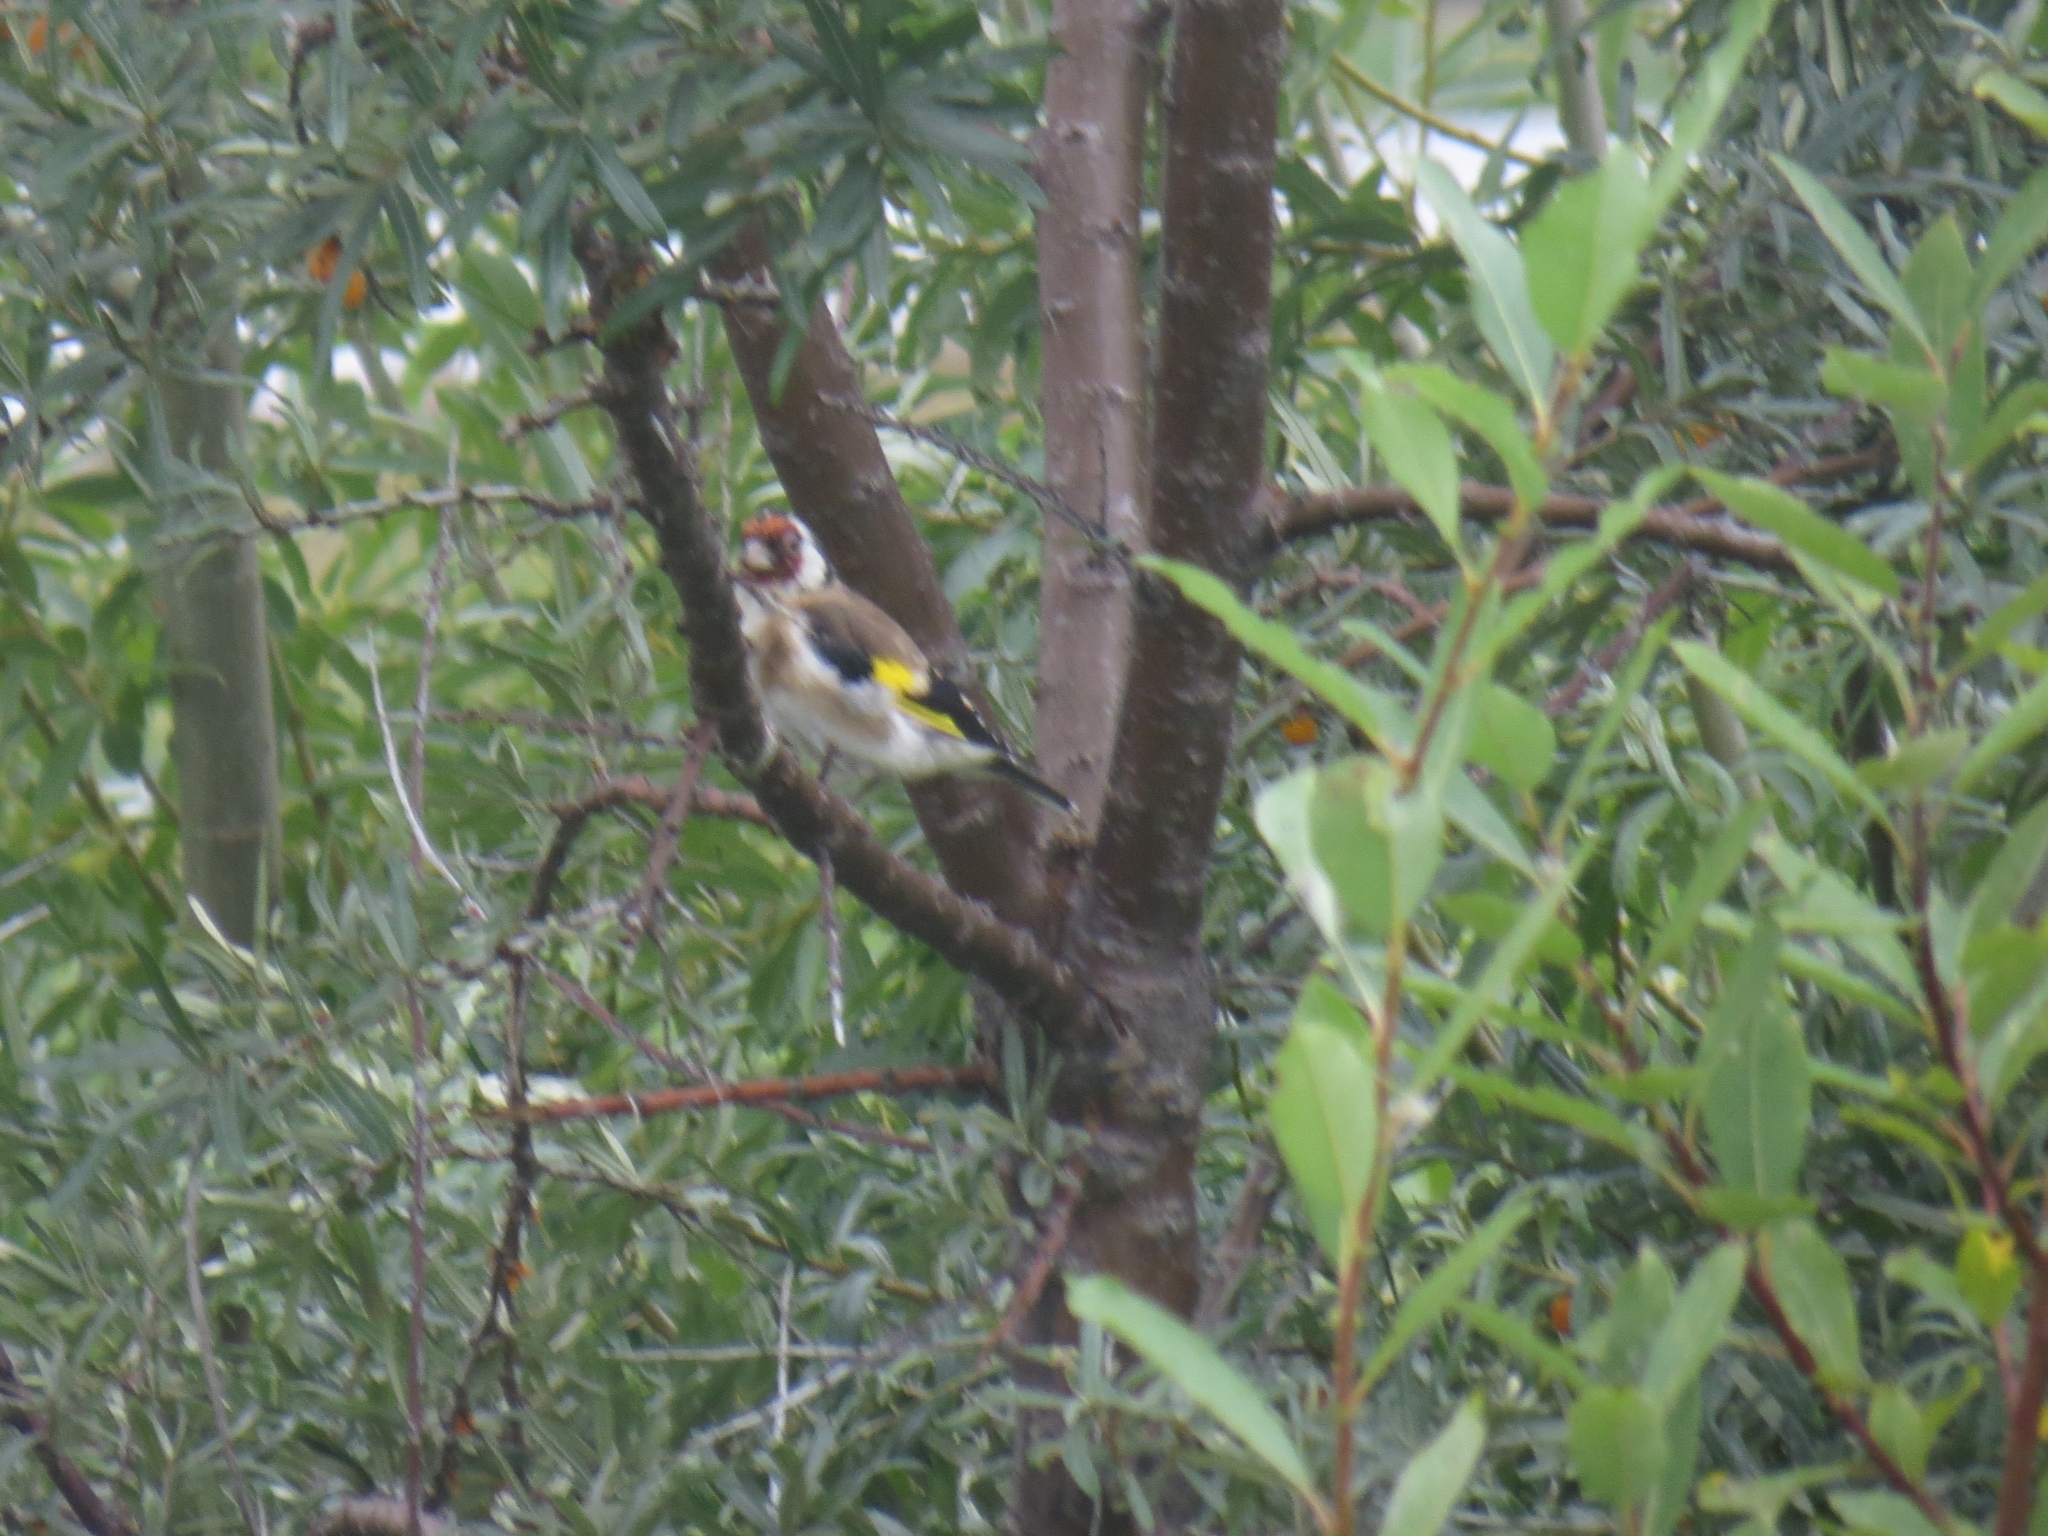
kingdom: Animalia
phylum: Chordata
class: Aves
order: Passeriformes
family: Fringillidae
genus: Carduelis
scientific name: Carduelis carduelis
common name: European goldfinch
